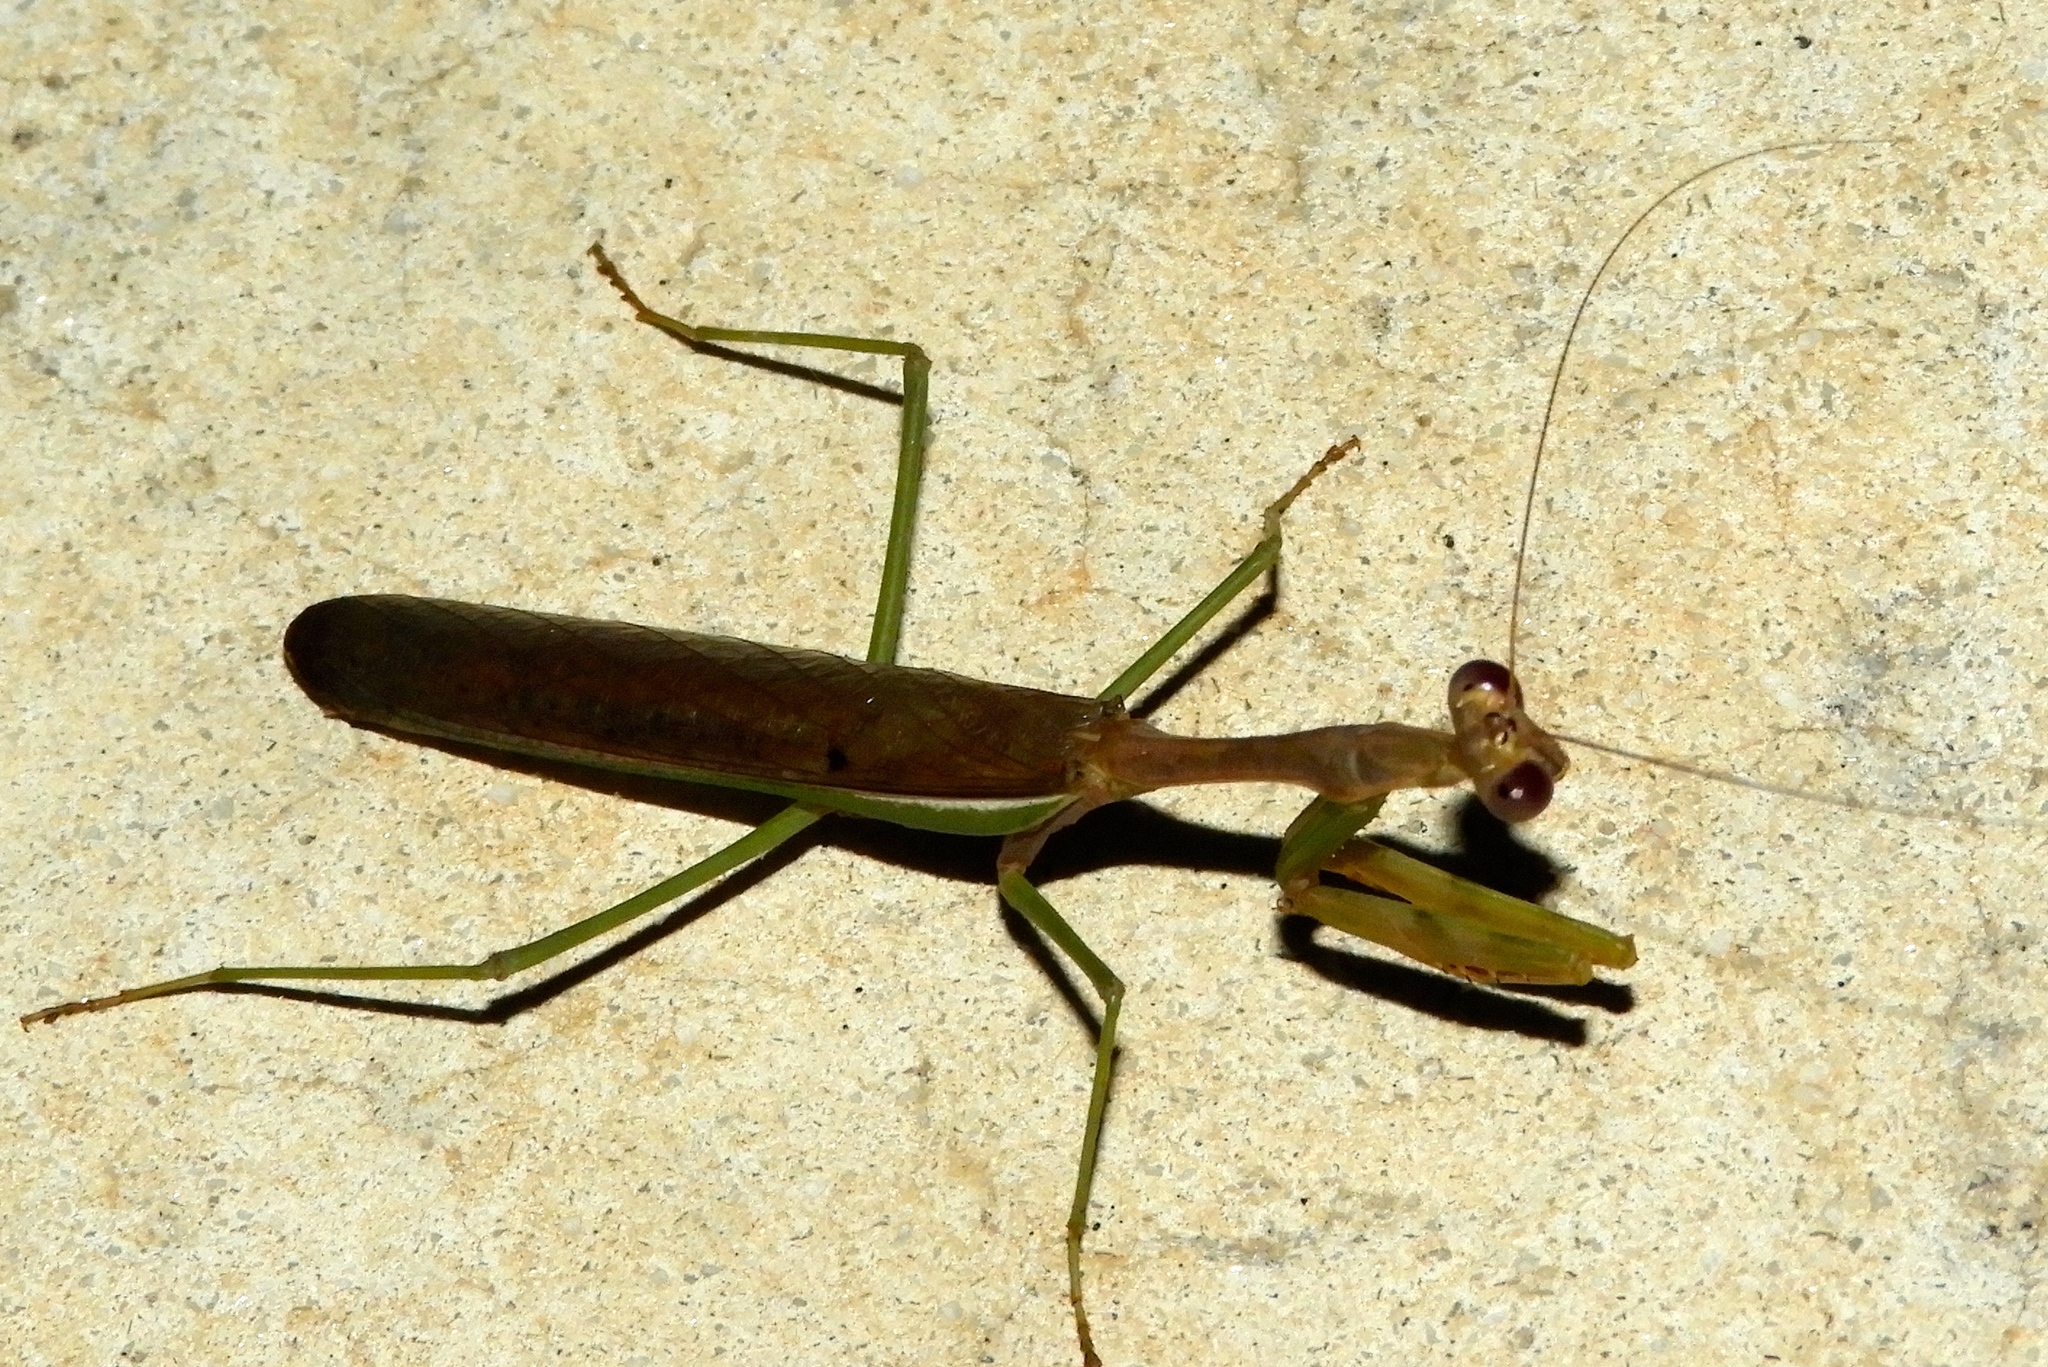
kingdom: Animalia
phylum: Arthropoda
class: Insecta
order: Mantodea
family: Mantidae
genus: Stagmomantis
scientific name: Stagmomantis
